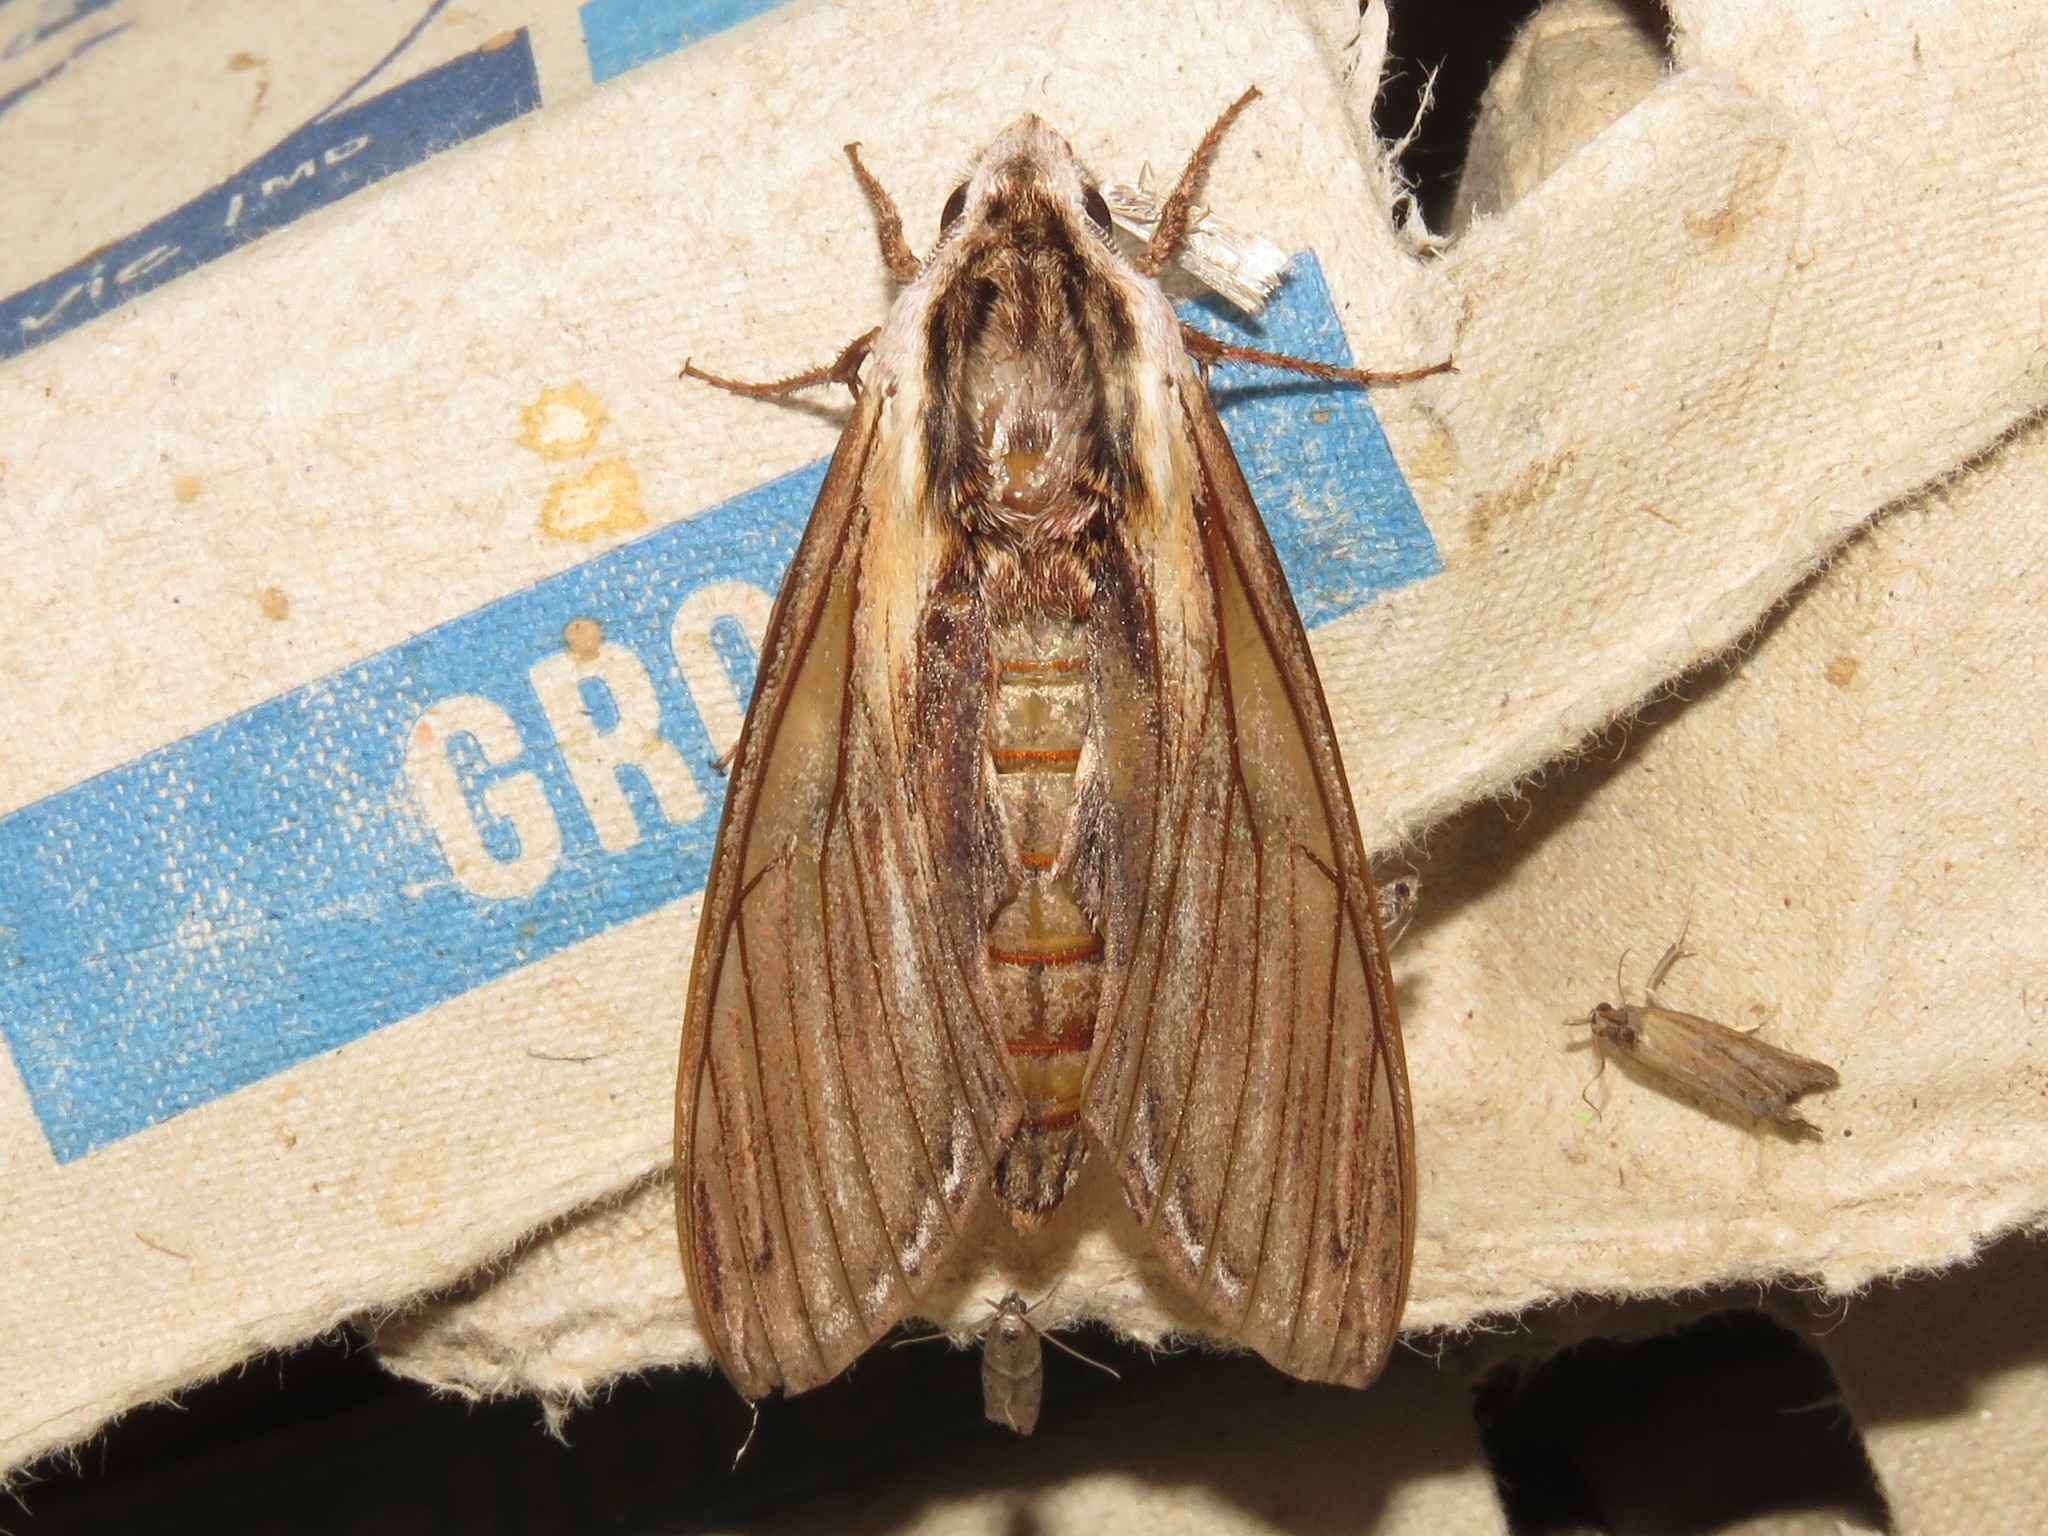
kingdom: Animalia
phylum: Arthropoda
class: Insecta
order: Lepidoptera
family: Sphingidae
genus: Sphinx
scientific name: Sphinx kalmiae
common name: Laurel sphinx
